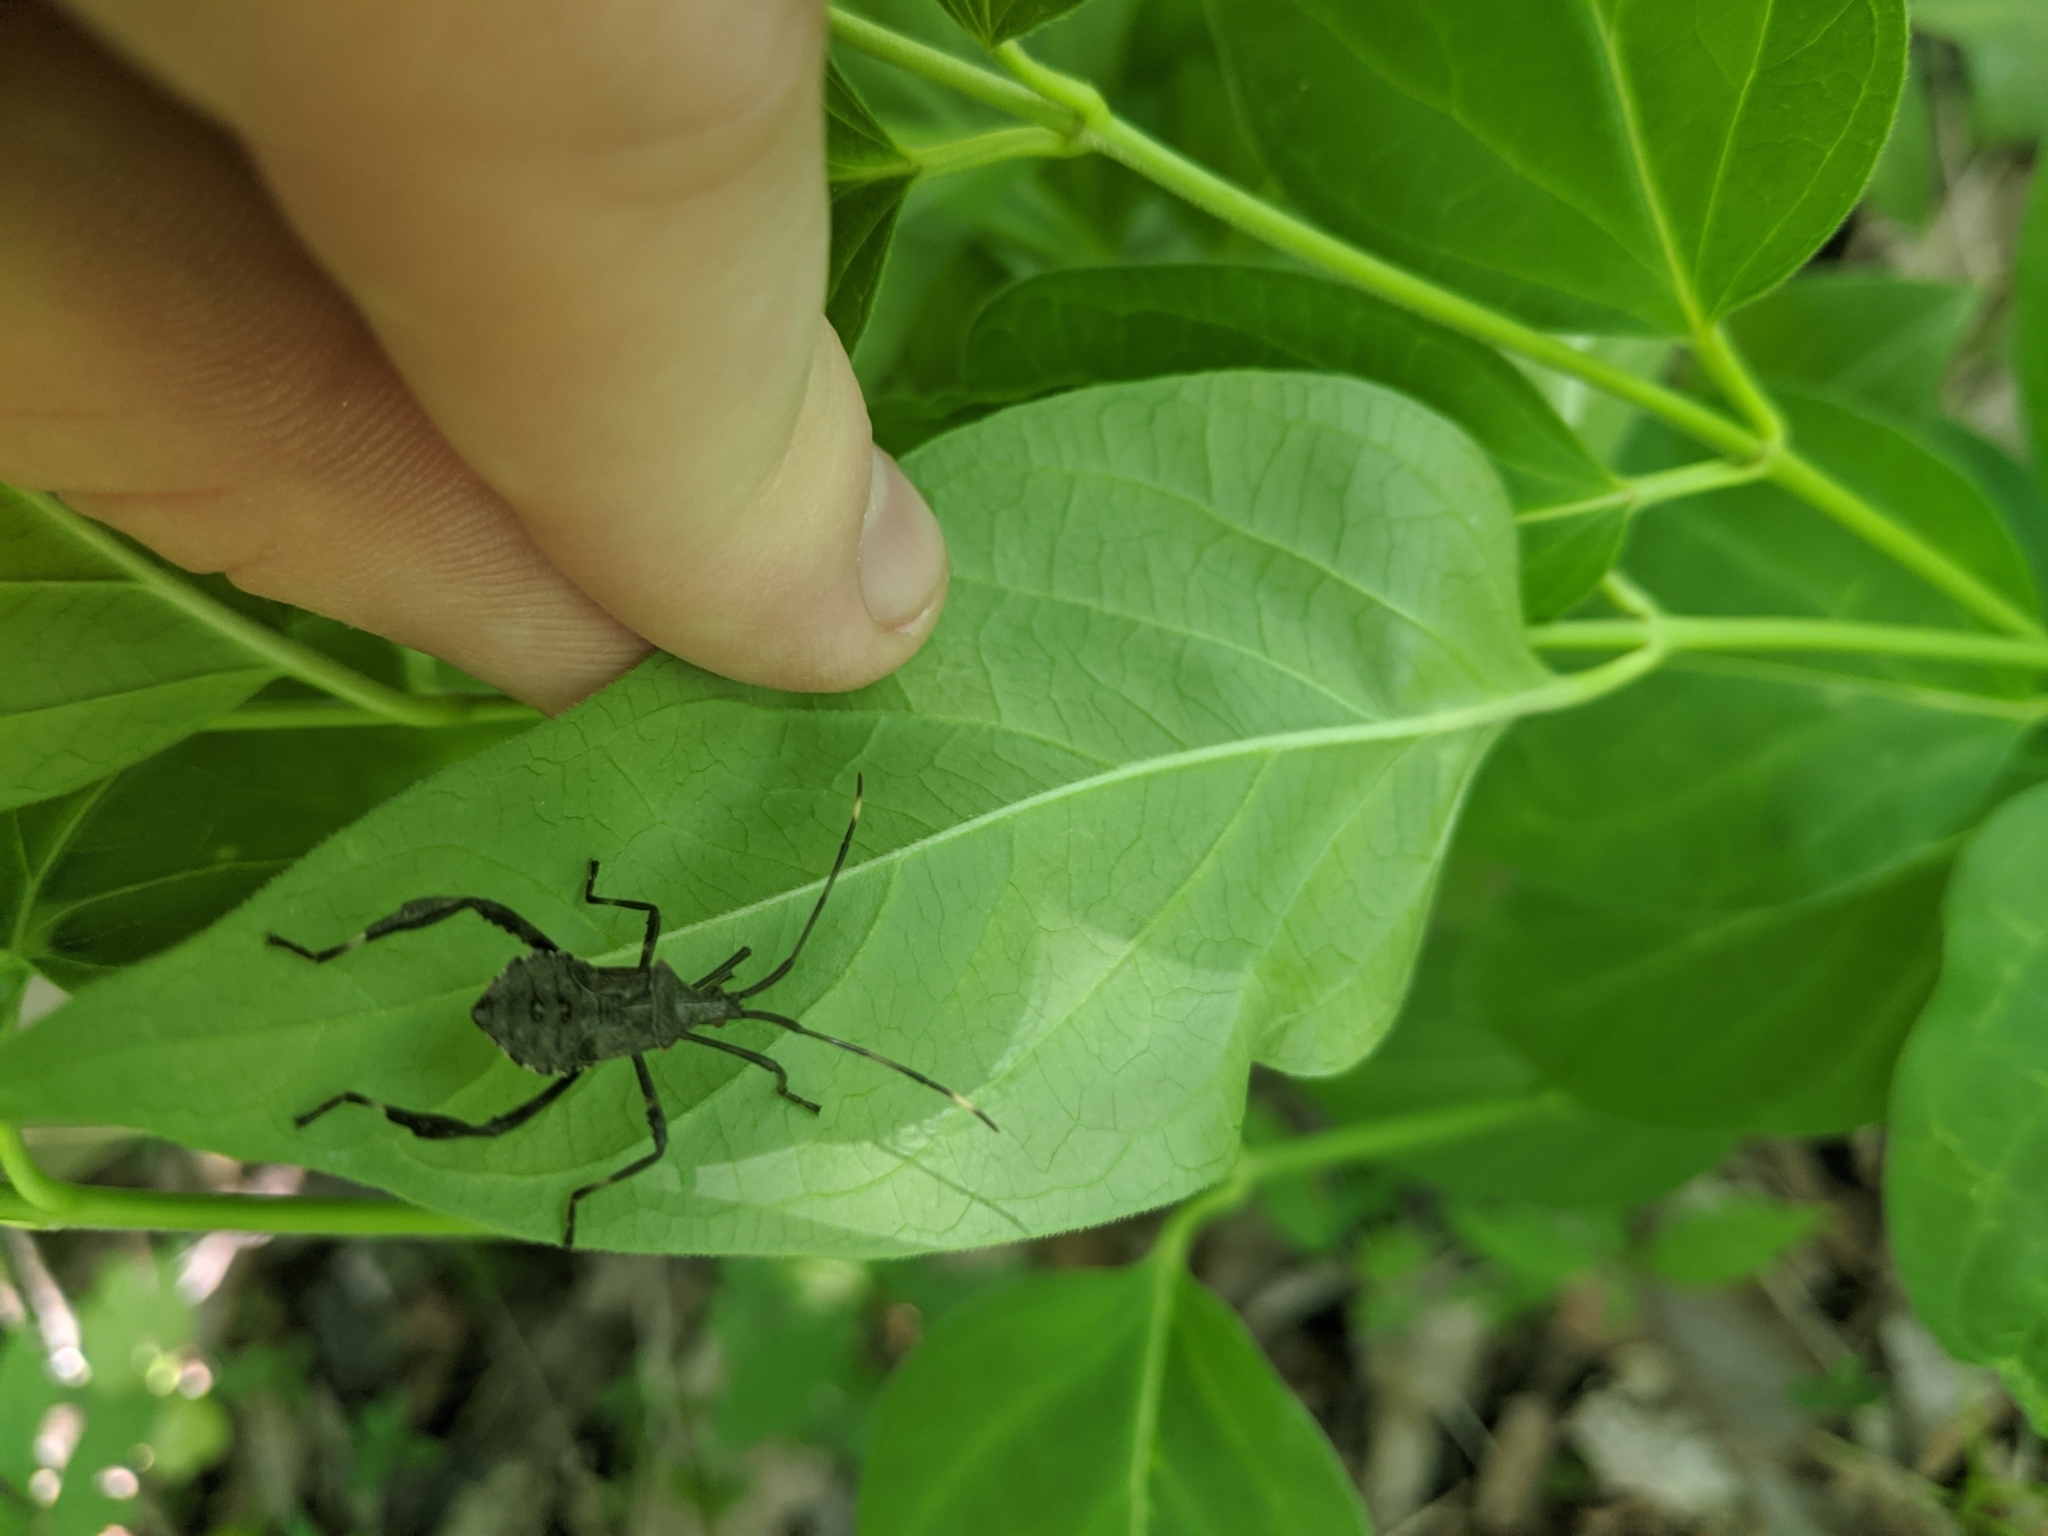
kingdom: Animalia
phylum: Arthropoda
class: Insecta
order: Hemiptera
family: Coreidae
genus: Acanthocephala
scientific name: Acanthocephala terminalis
